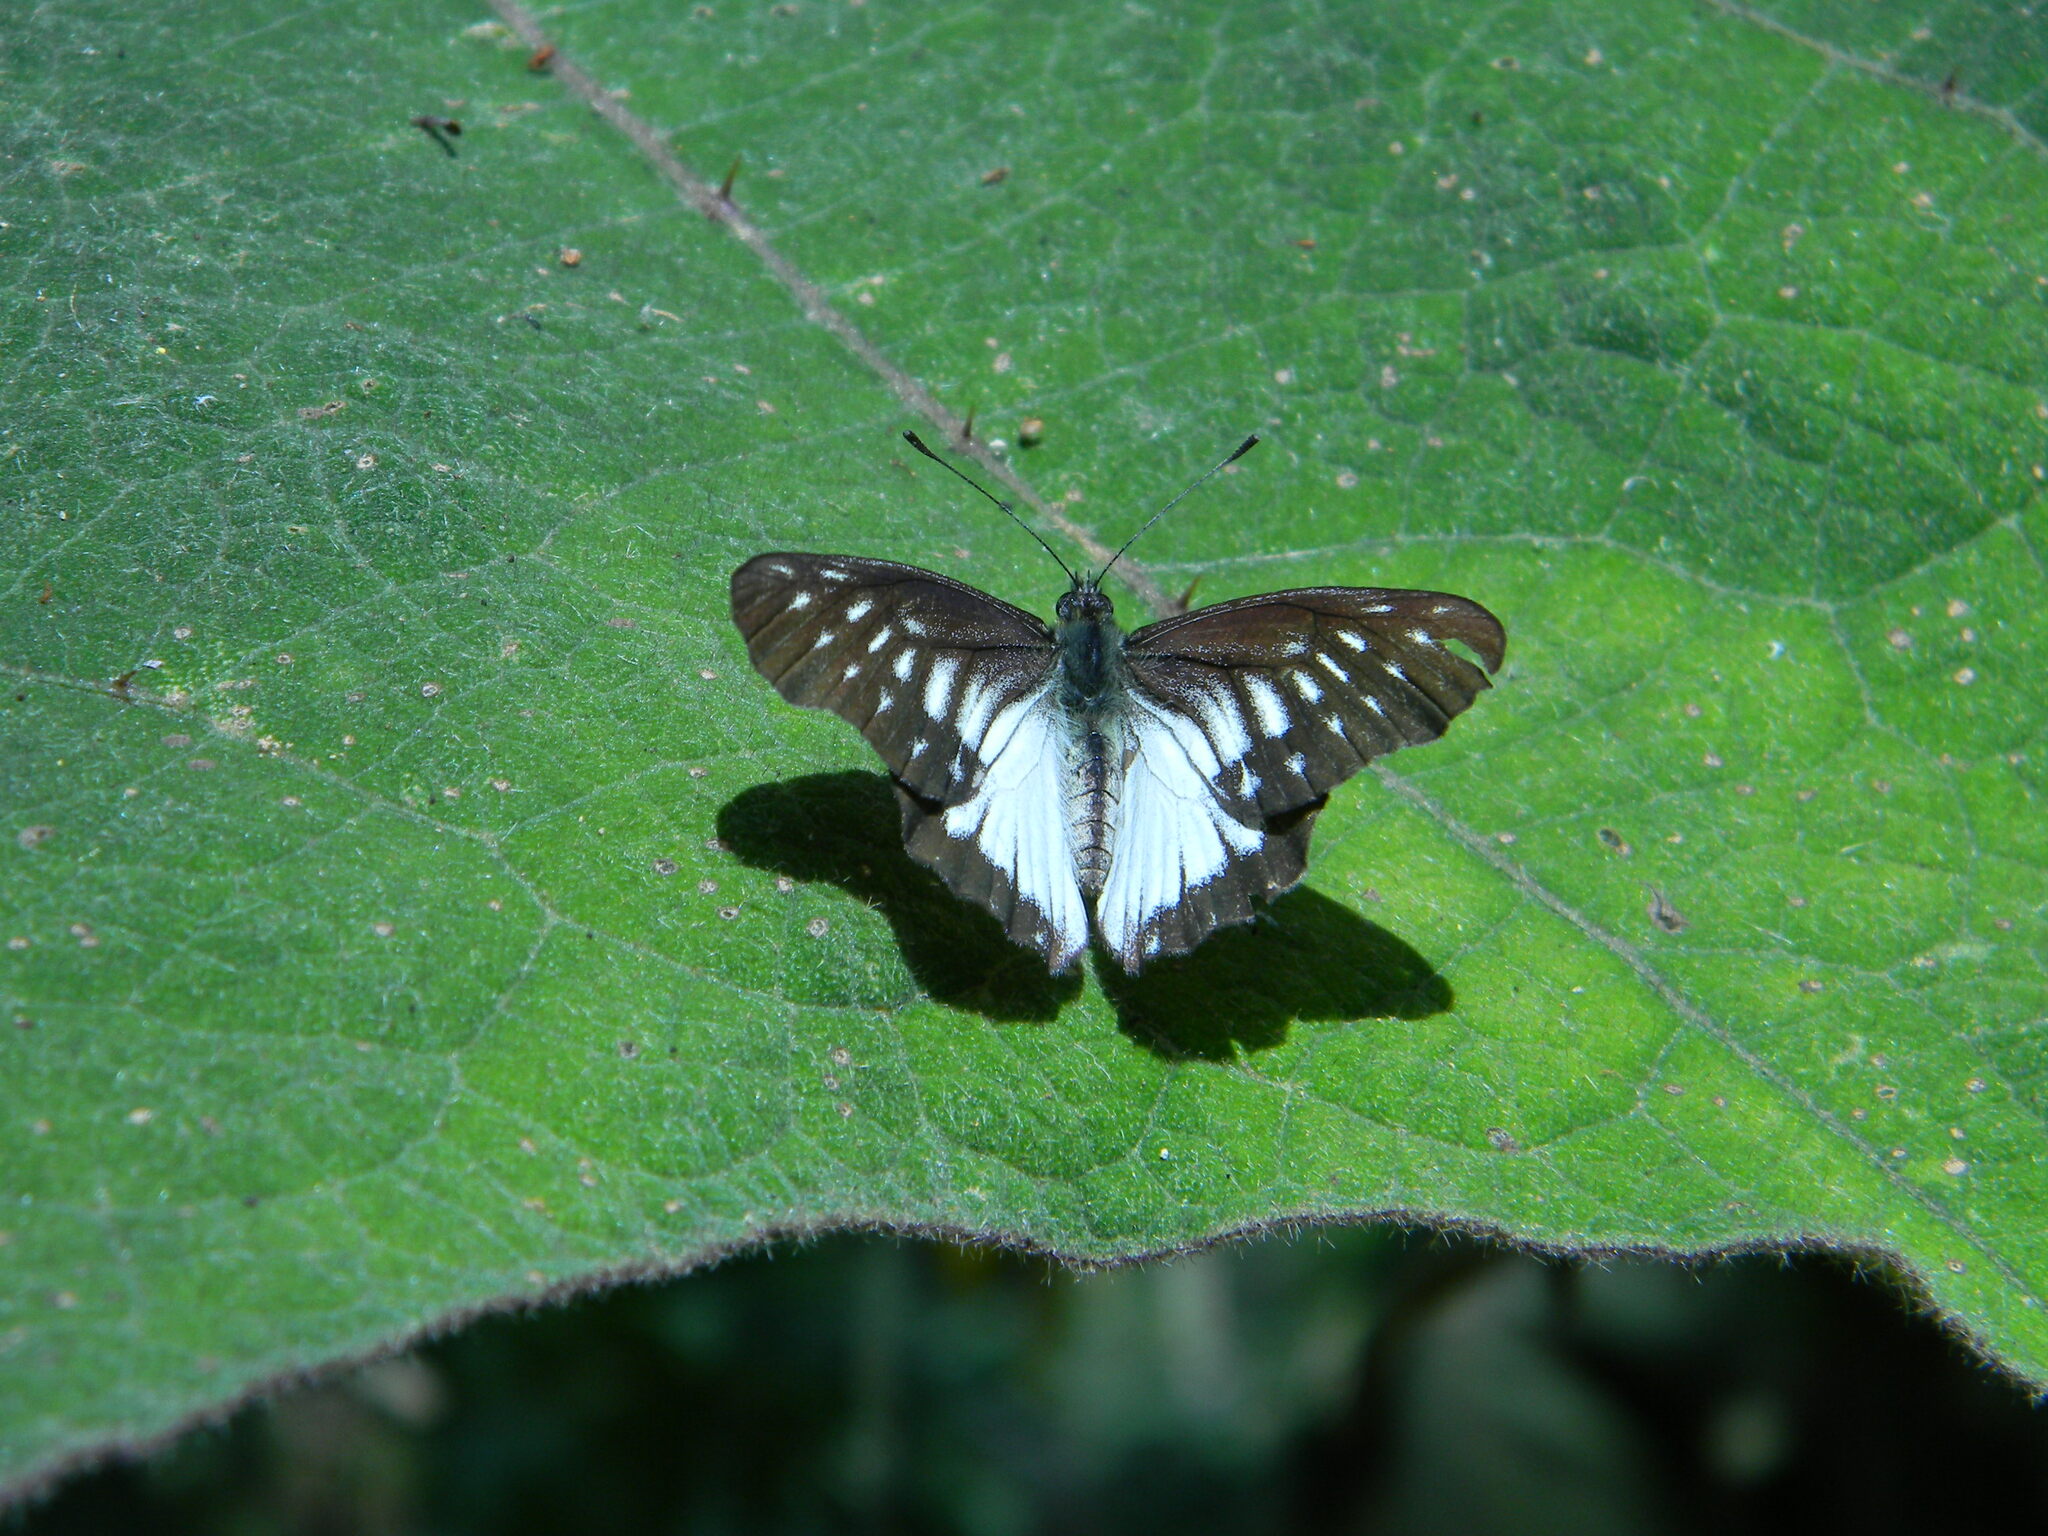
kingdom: Animalia
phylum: Arthropoda
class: Insecta
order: Lepidoptera
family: Pieridae
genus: Catasticta
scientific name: Catasticta hebra
